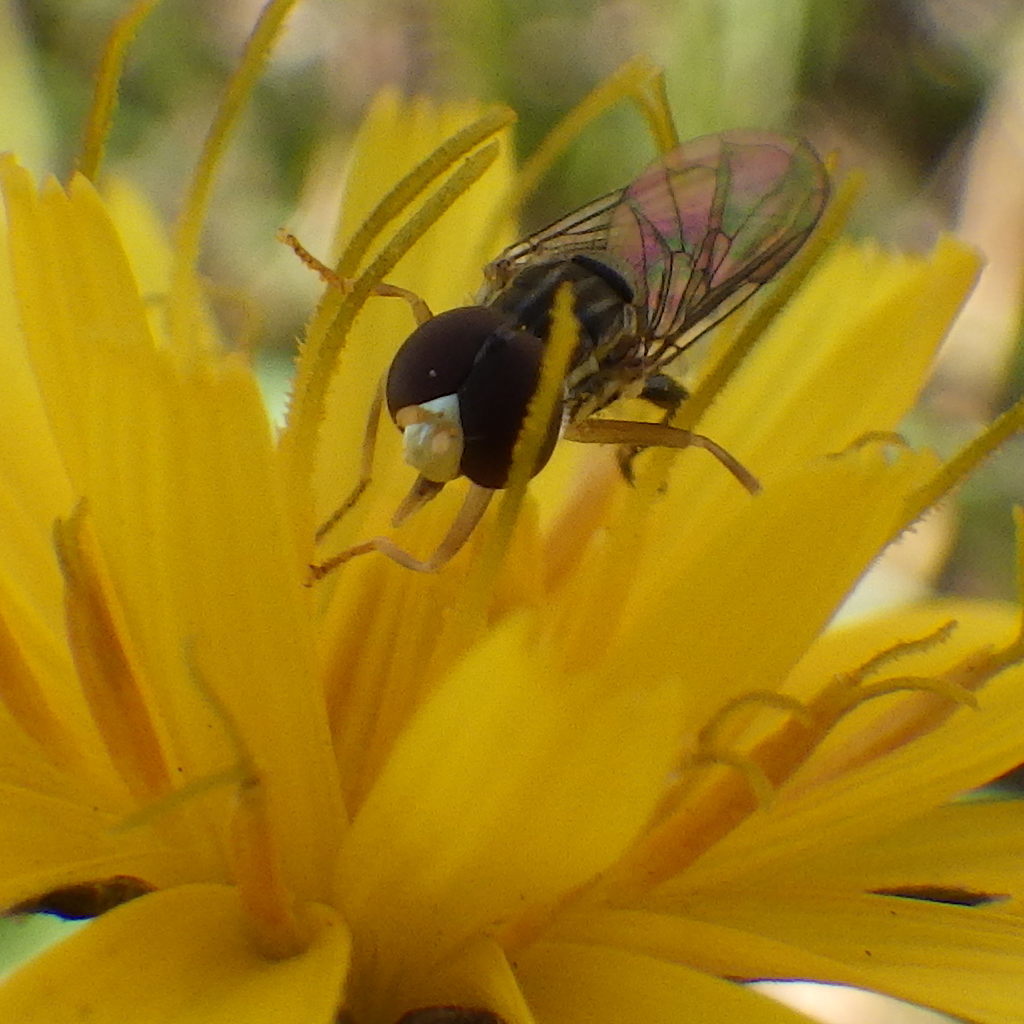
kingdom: Animalia
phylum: Arthropoda
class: Insecta
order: Diptera
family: Syrphidae
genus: Syritta
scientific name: Syritta pipiens
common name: Hover fly
